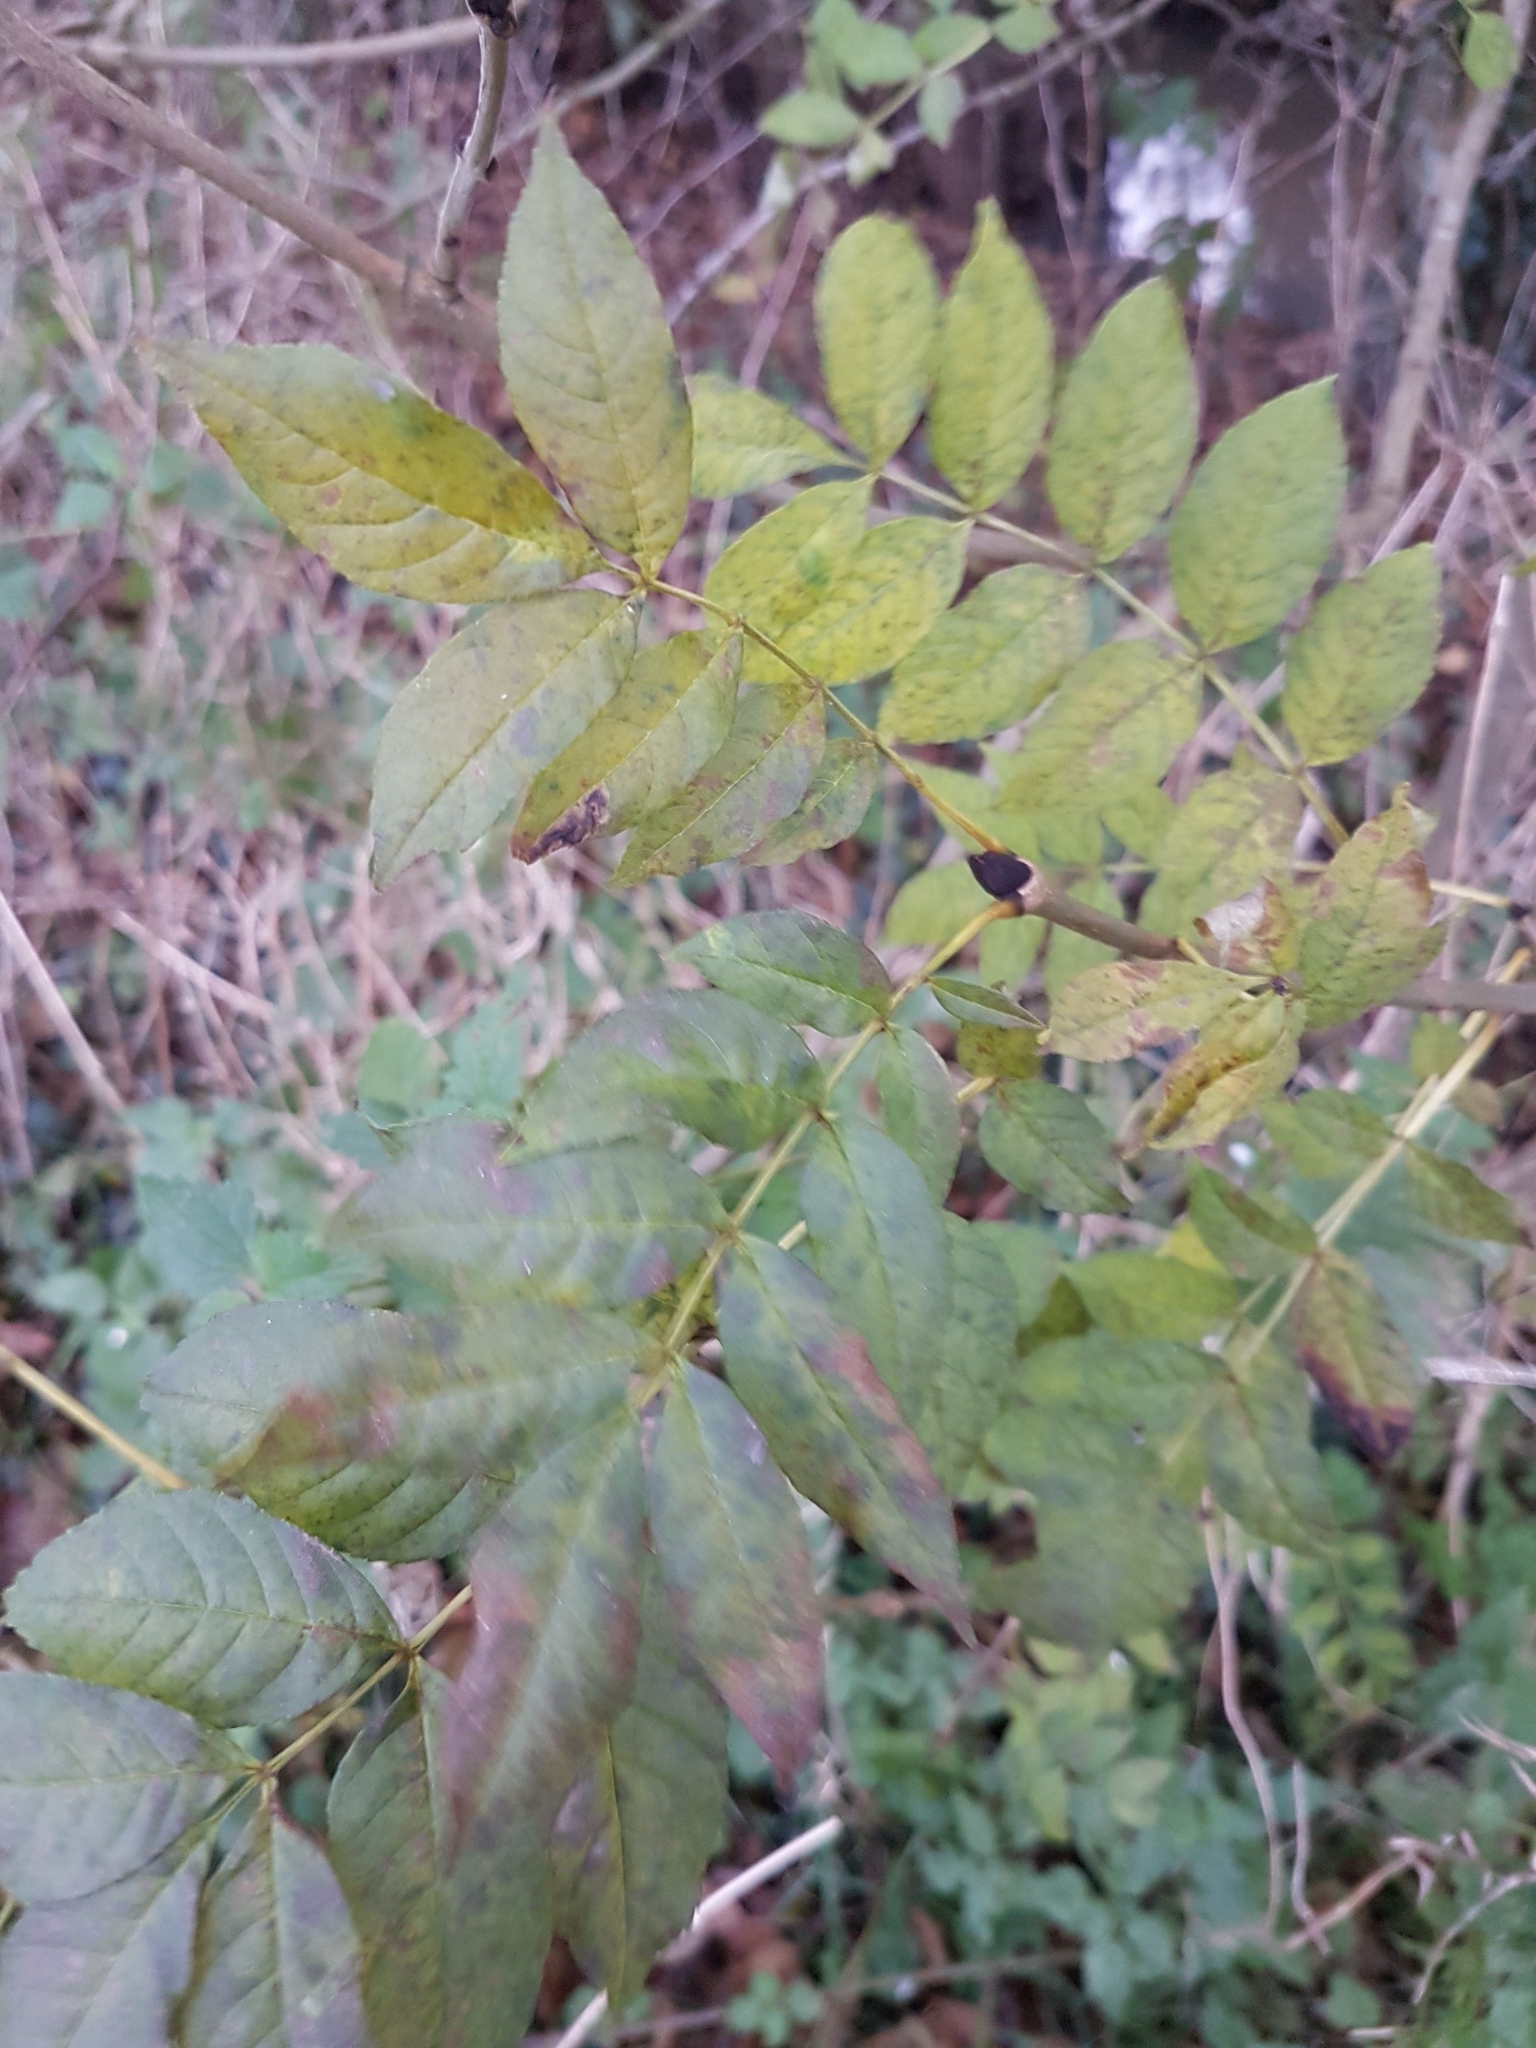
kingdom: Plantae
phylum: Tracheophyta
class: Magnoliopsida
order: Lamiales
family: Oleaceae
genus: Fraxinus
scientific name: Fraxinus excelsior
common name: European ash
